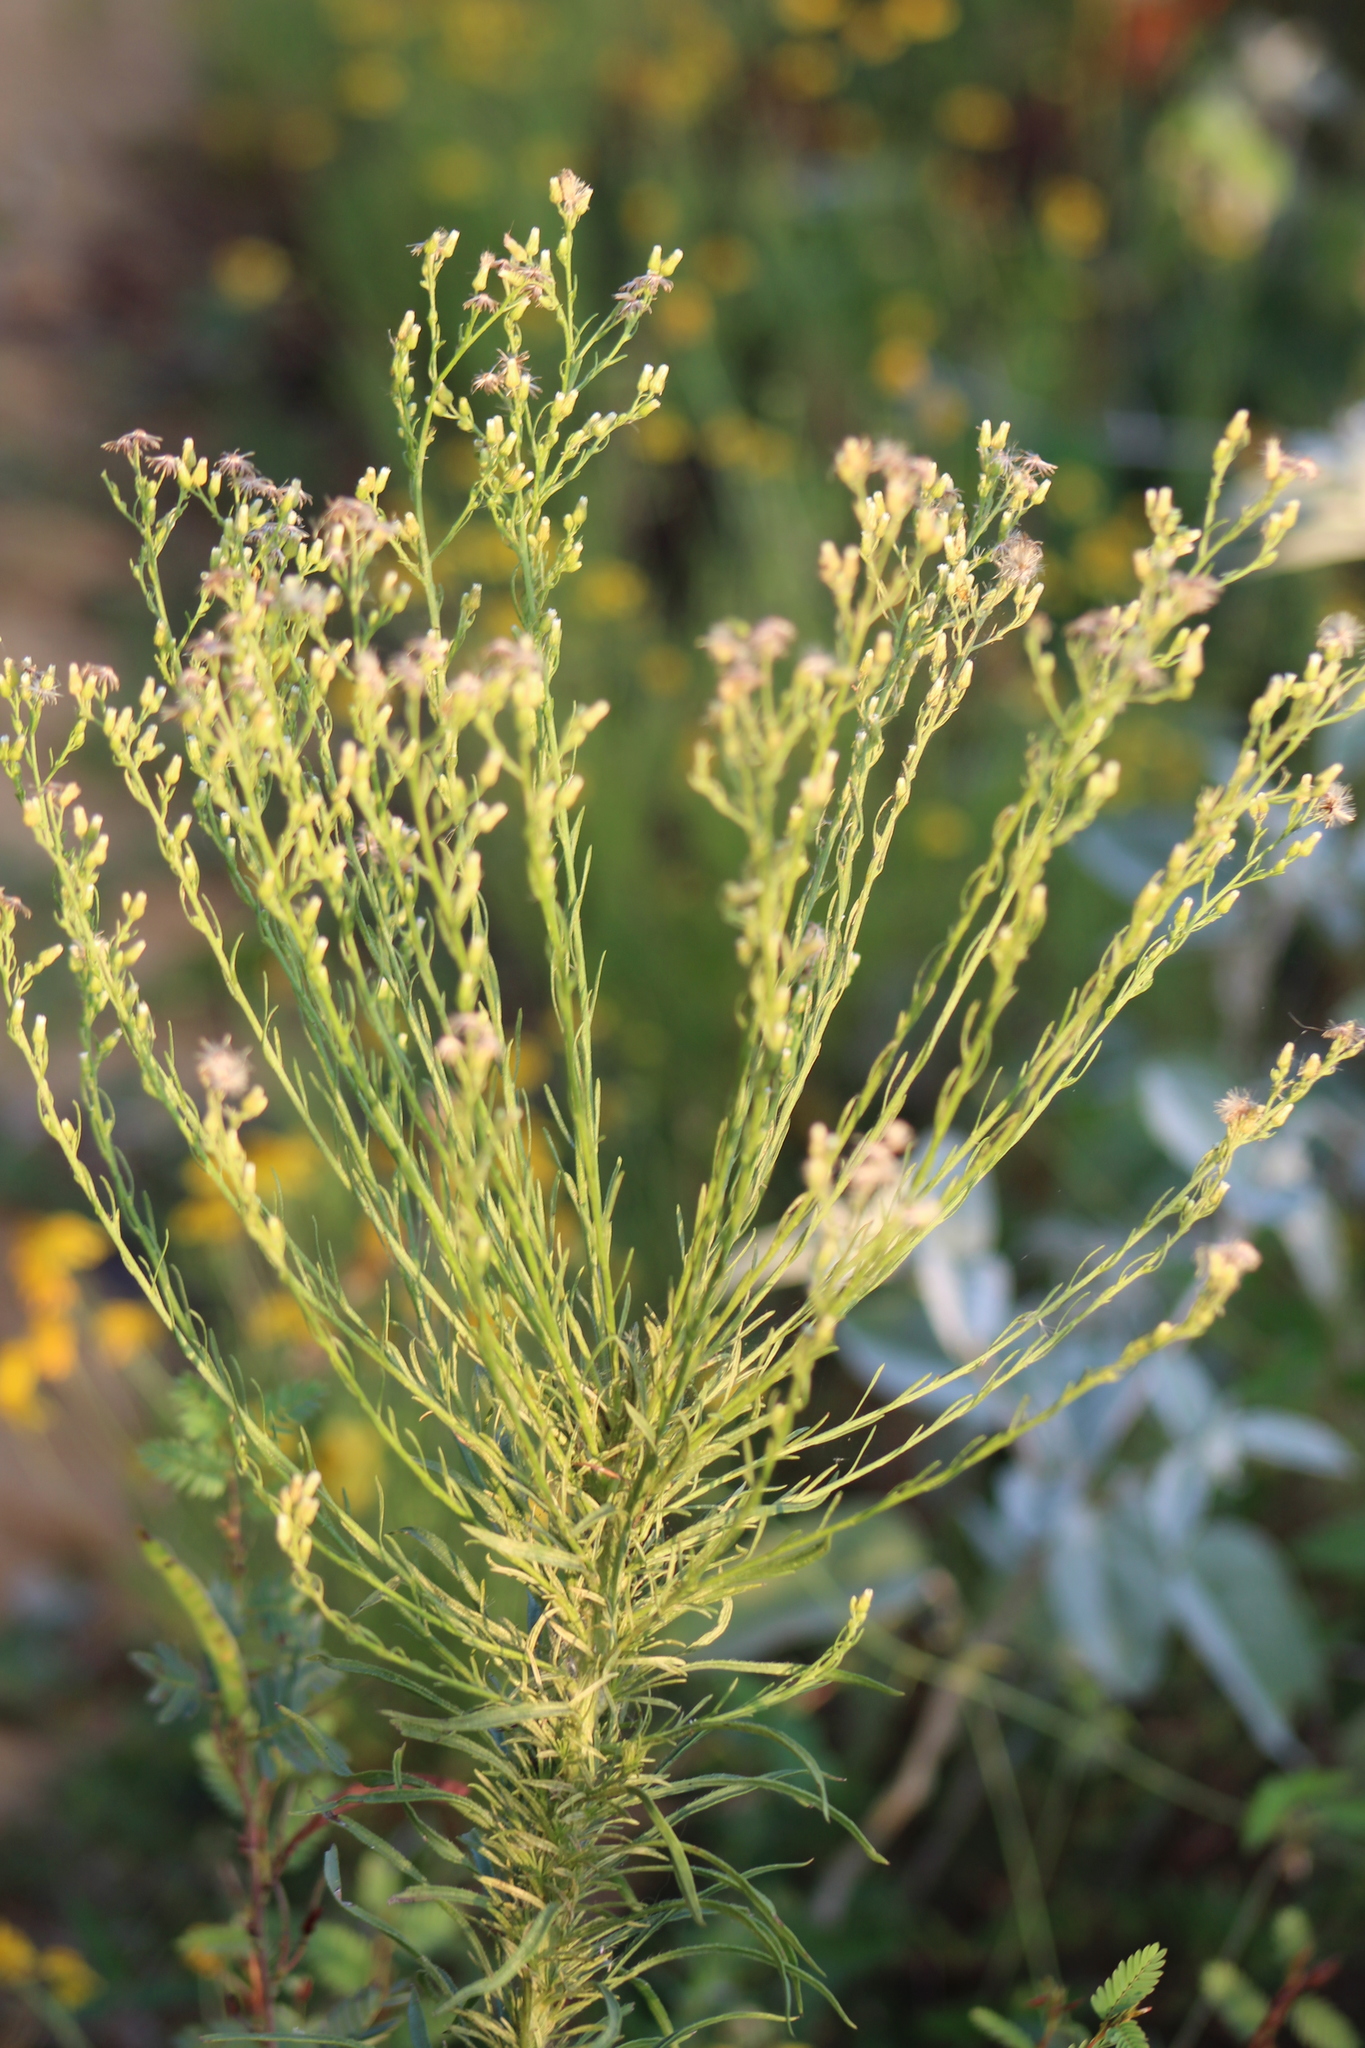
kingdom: Plantae
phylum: Tracheophyta
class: Magnoliopsida
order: Asterales
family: Asteraceae
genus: Erigeron
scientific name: Erigeron canadensis
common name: Canadian fleabane
